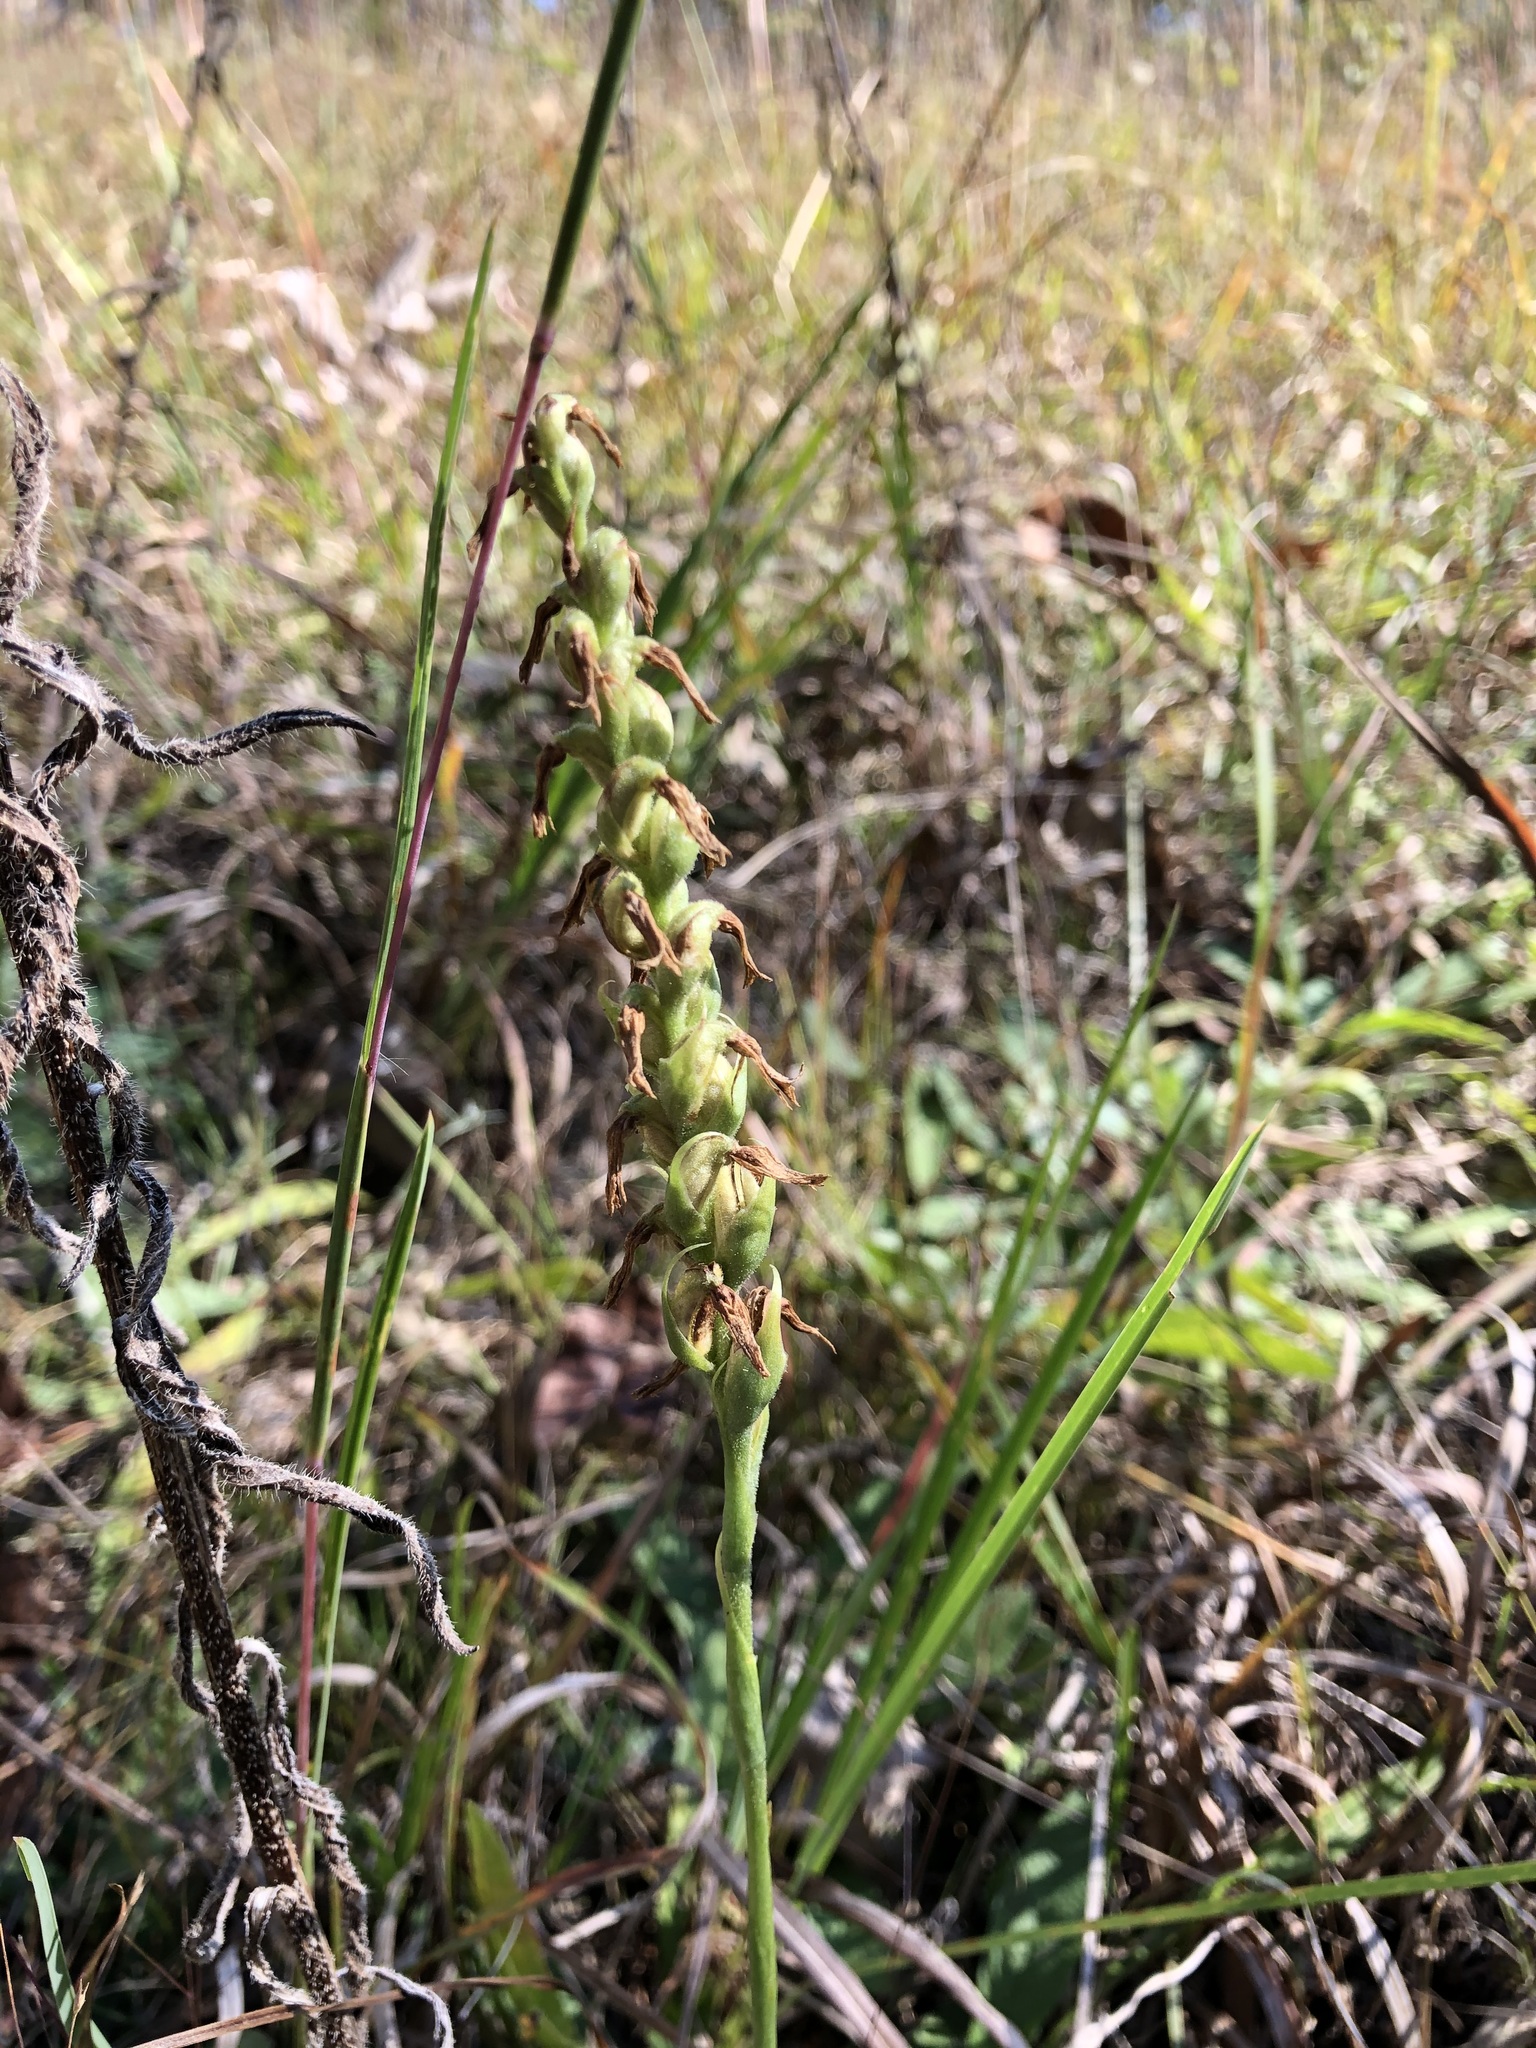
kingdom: Plantae
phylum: Tracheophyta
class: Liliopsida
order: Asparagales
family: Orchidaceae
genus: Spiranthes
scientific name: Spiranthes magnicamporum
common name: Great plains ladies'-tresses
